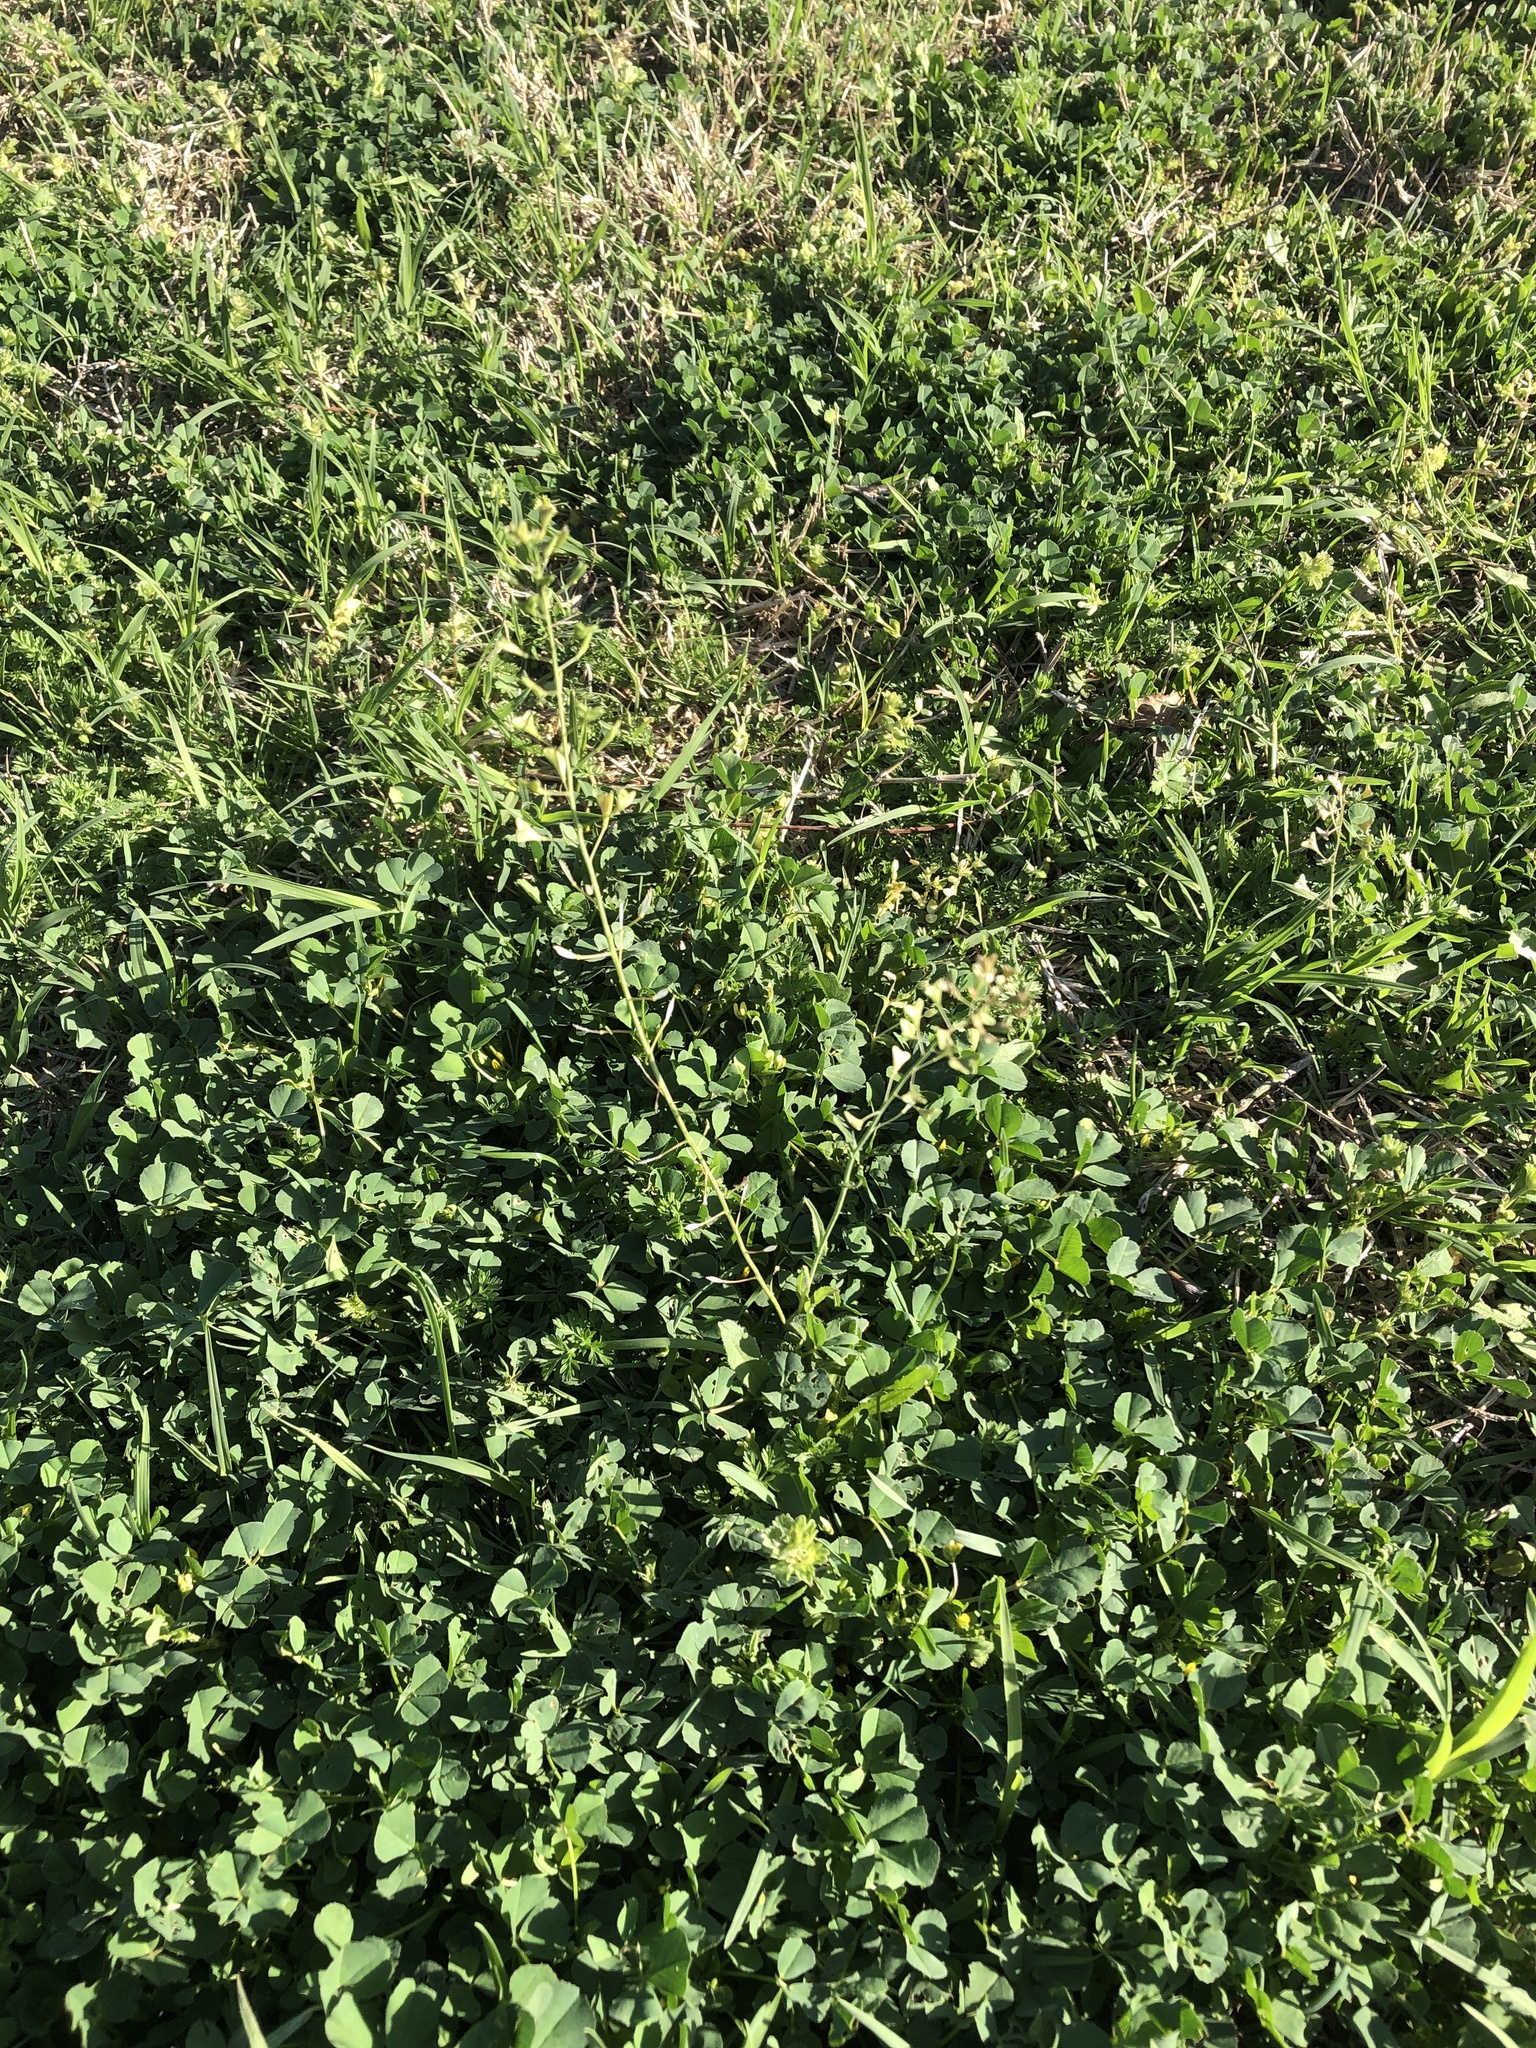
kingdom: Plantae
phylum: Tracheophyta
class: Magnoliopsida
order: Brassicales
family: Brassicaceae
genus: Capsella
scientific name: Capsella bursa-pastoris
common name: Shepherd's purse
